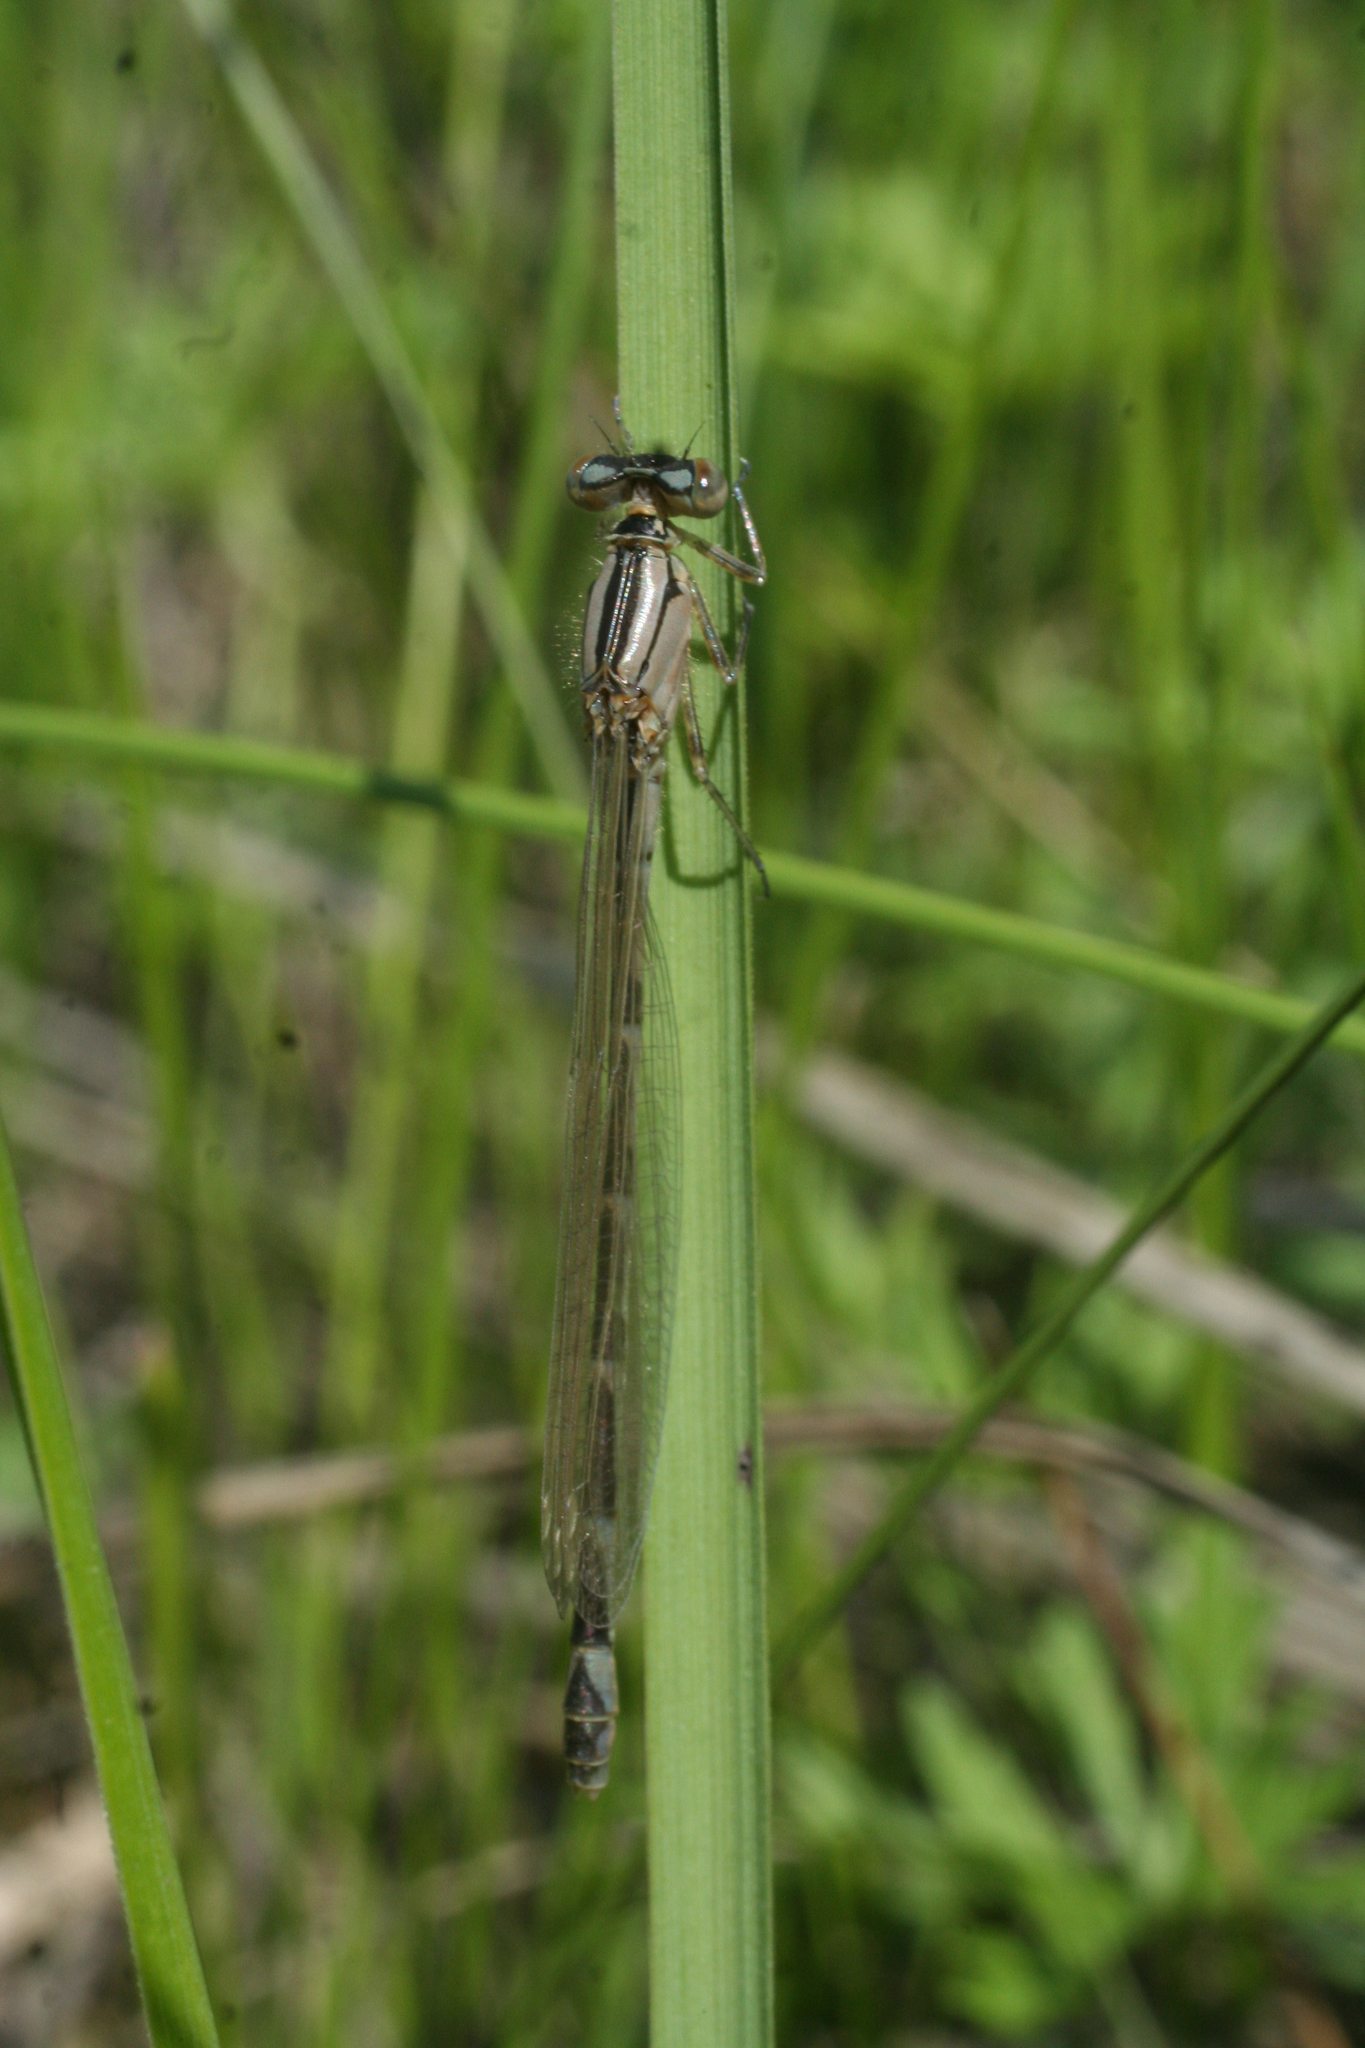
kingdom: Animalia
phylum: Arthropoda
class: Insecta
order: Odonata
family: Coenagrionidae
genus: Enallagma
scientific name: Enallagma cyathigerum
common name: Common blue damselfly
